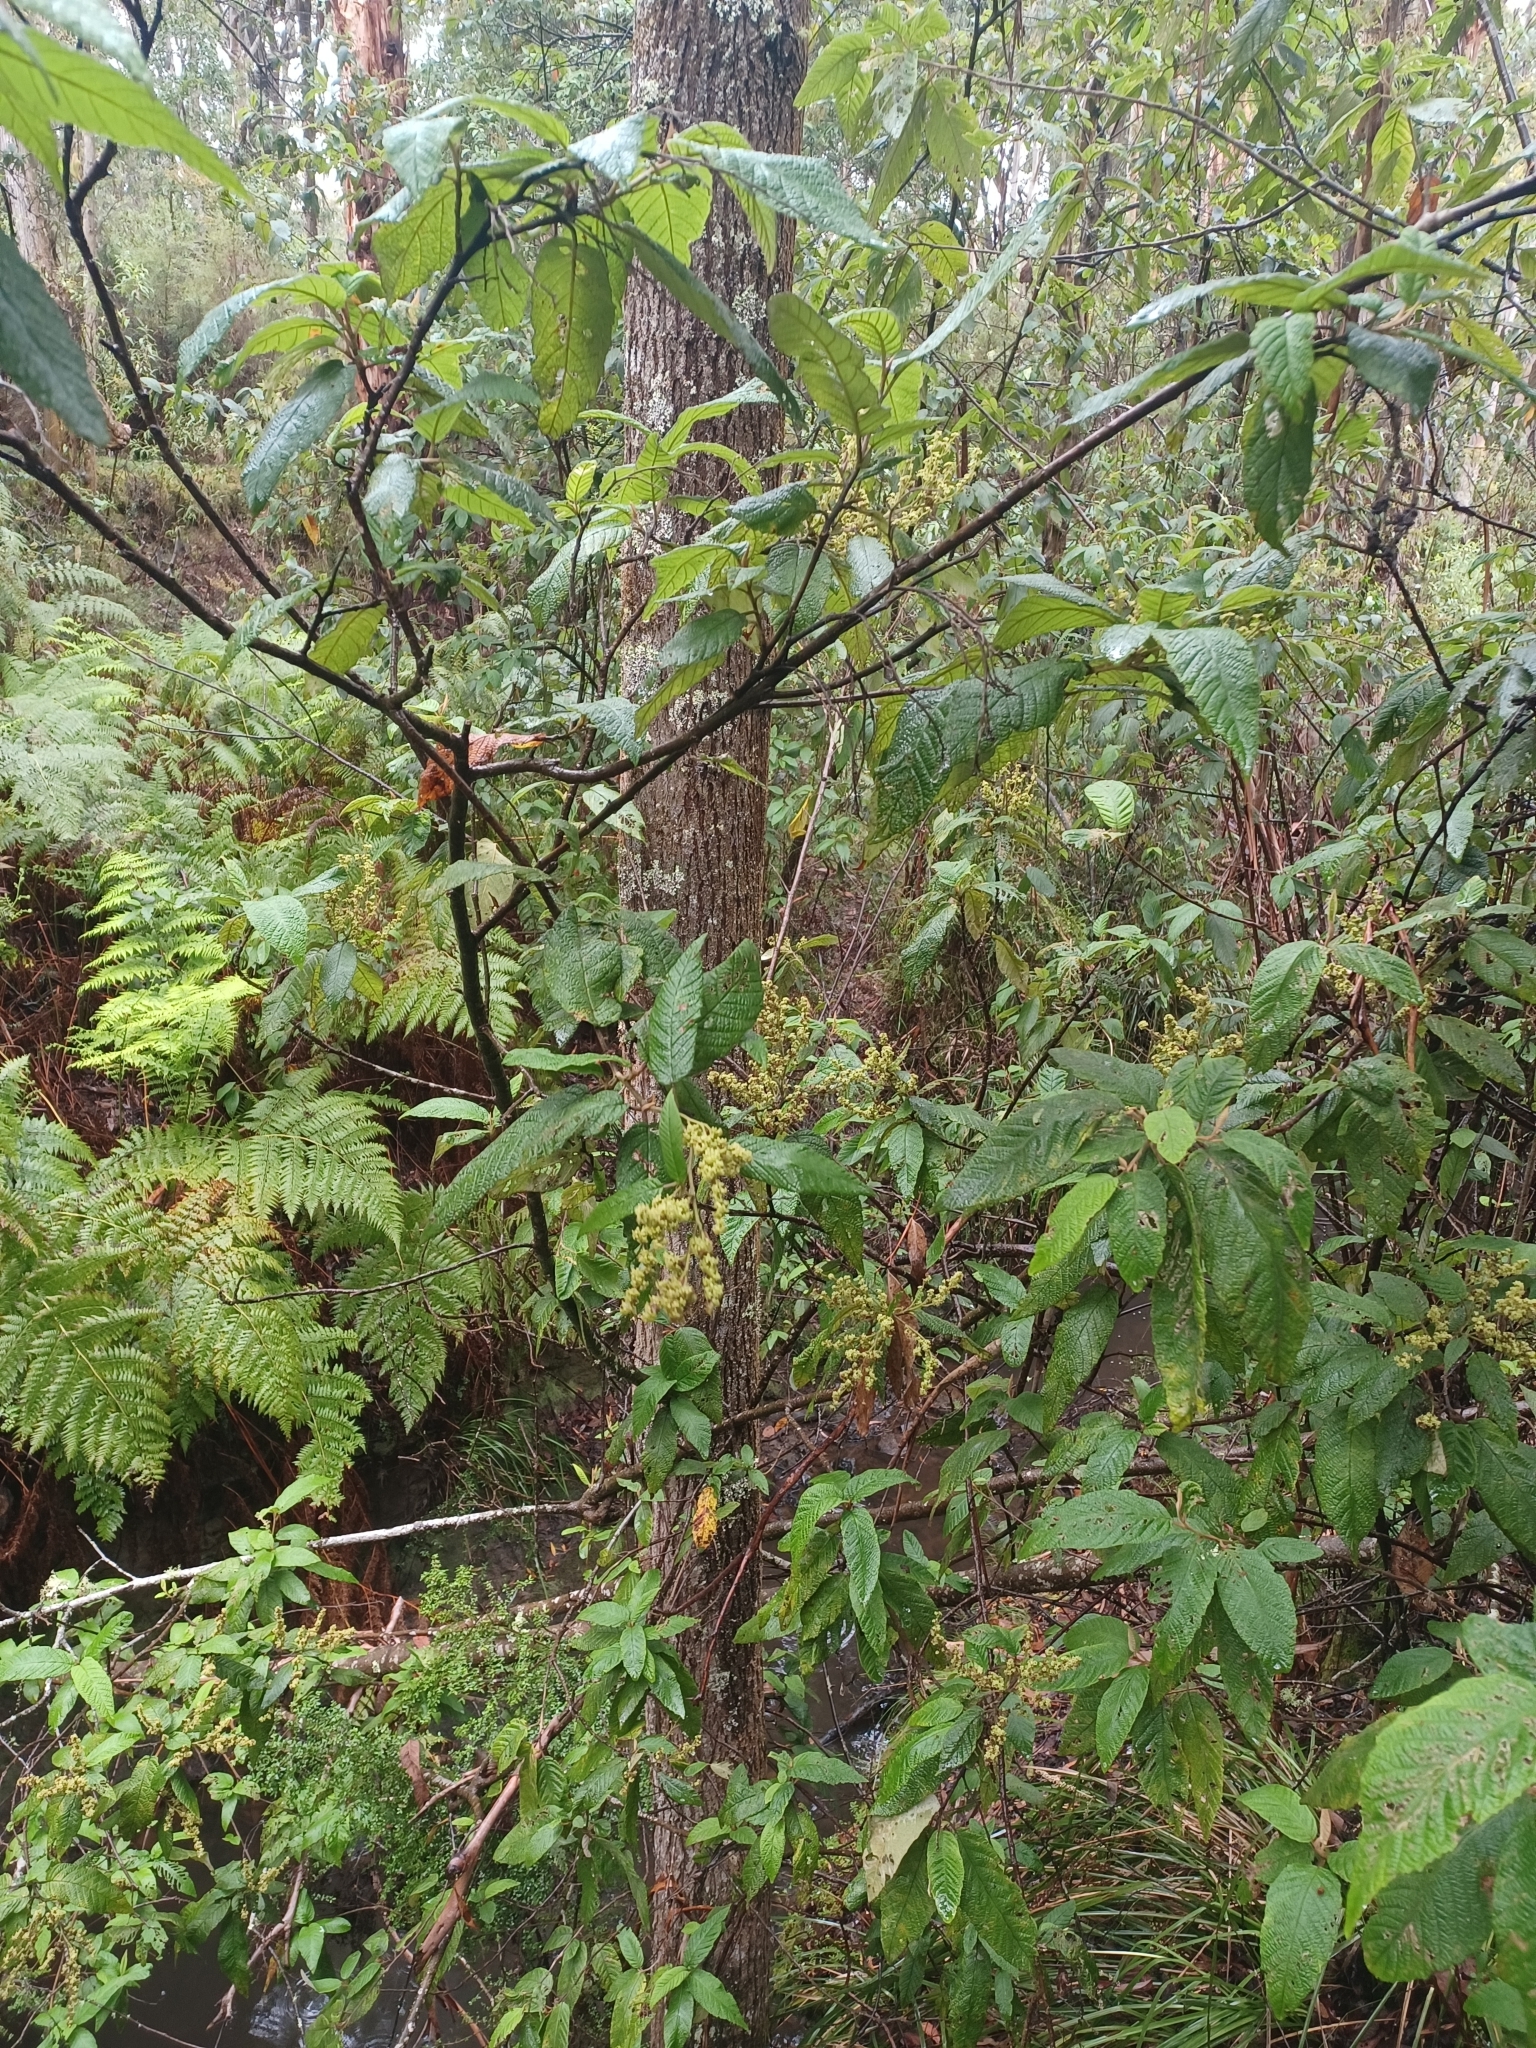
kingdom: Plantae
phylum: Tracheophyta
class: Magnoliopsida
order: Rosales
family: Rhamnaceae
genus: Pomaderris
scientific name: Pomaderris aspera
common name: Hazel pomaderris
